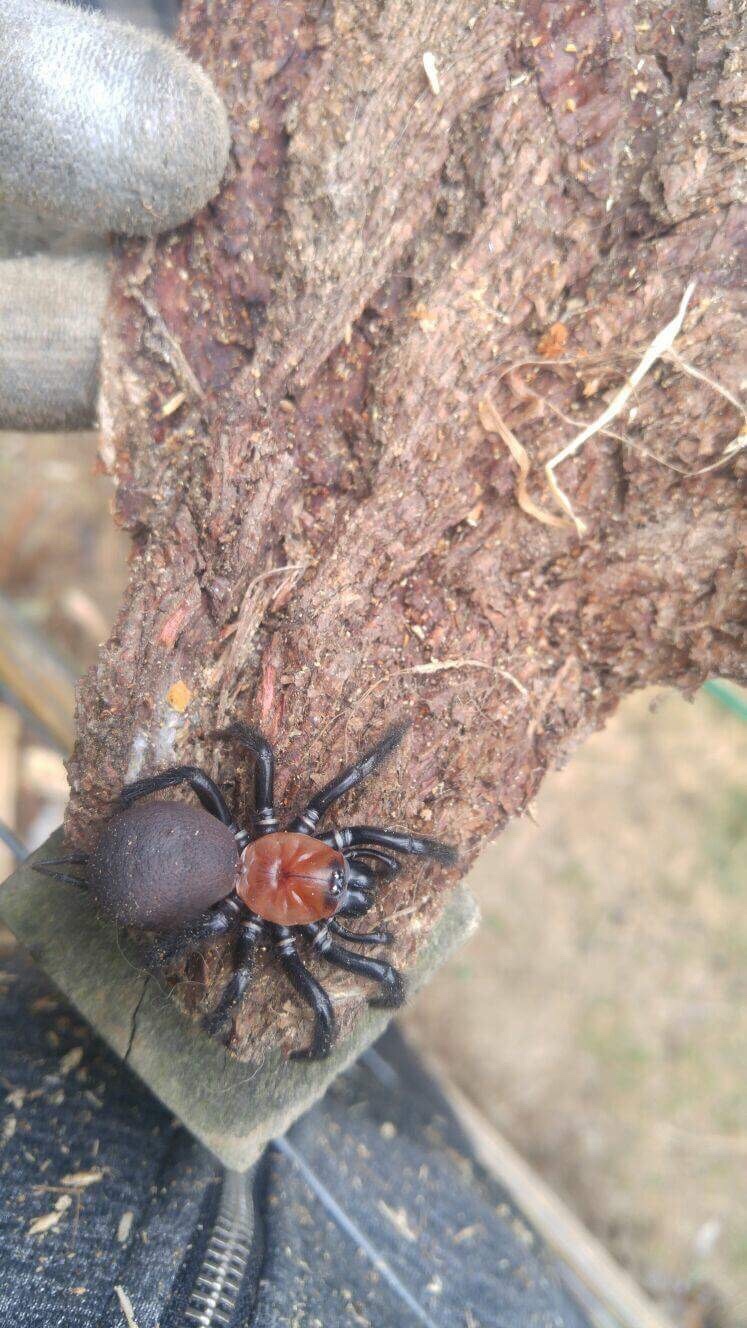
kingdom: Animalia
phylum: Arthropoda
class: Arachnida
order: Araneae
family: Porrhothelidae
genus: Porrhothele
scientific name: Porrhothele antipodiana
